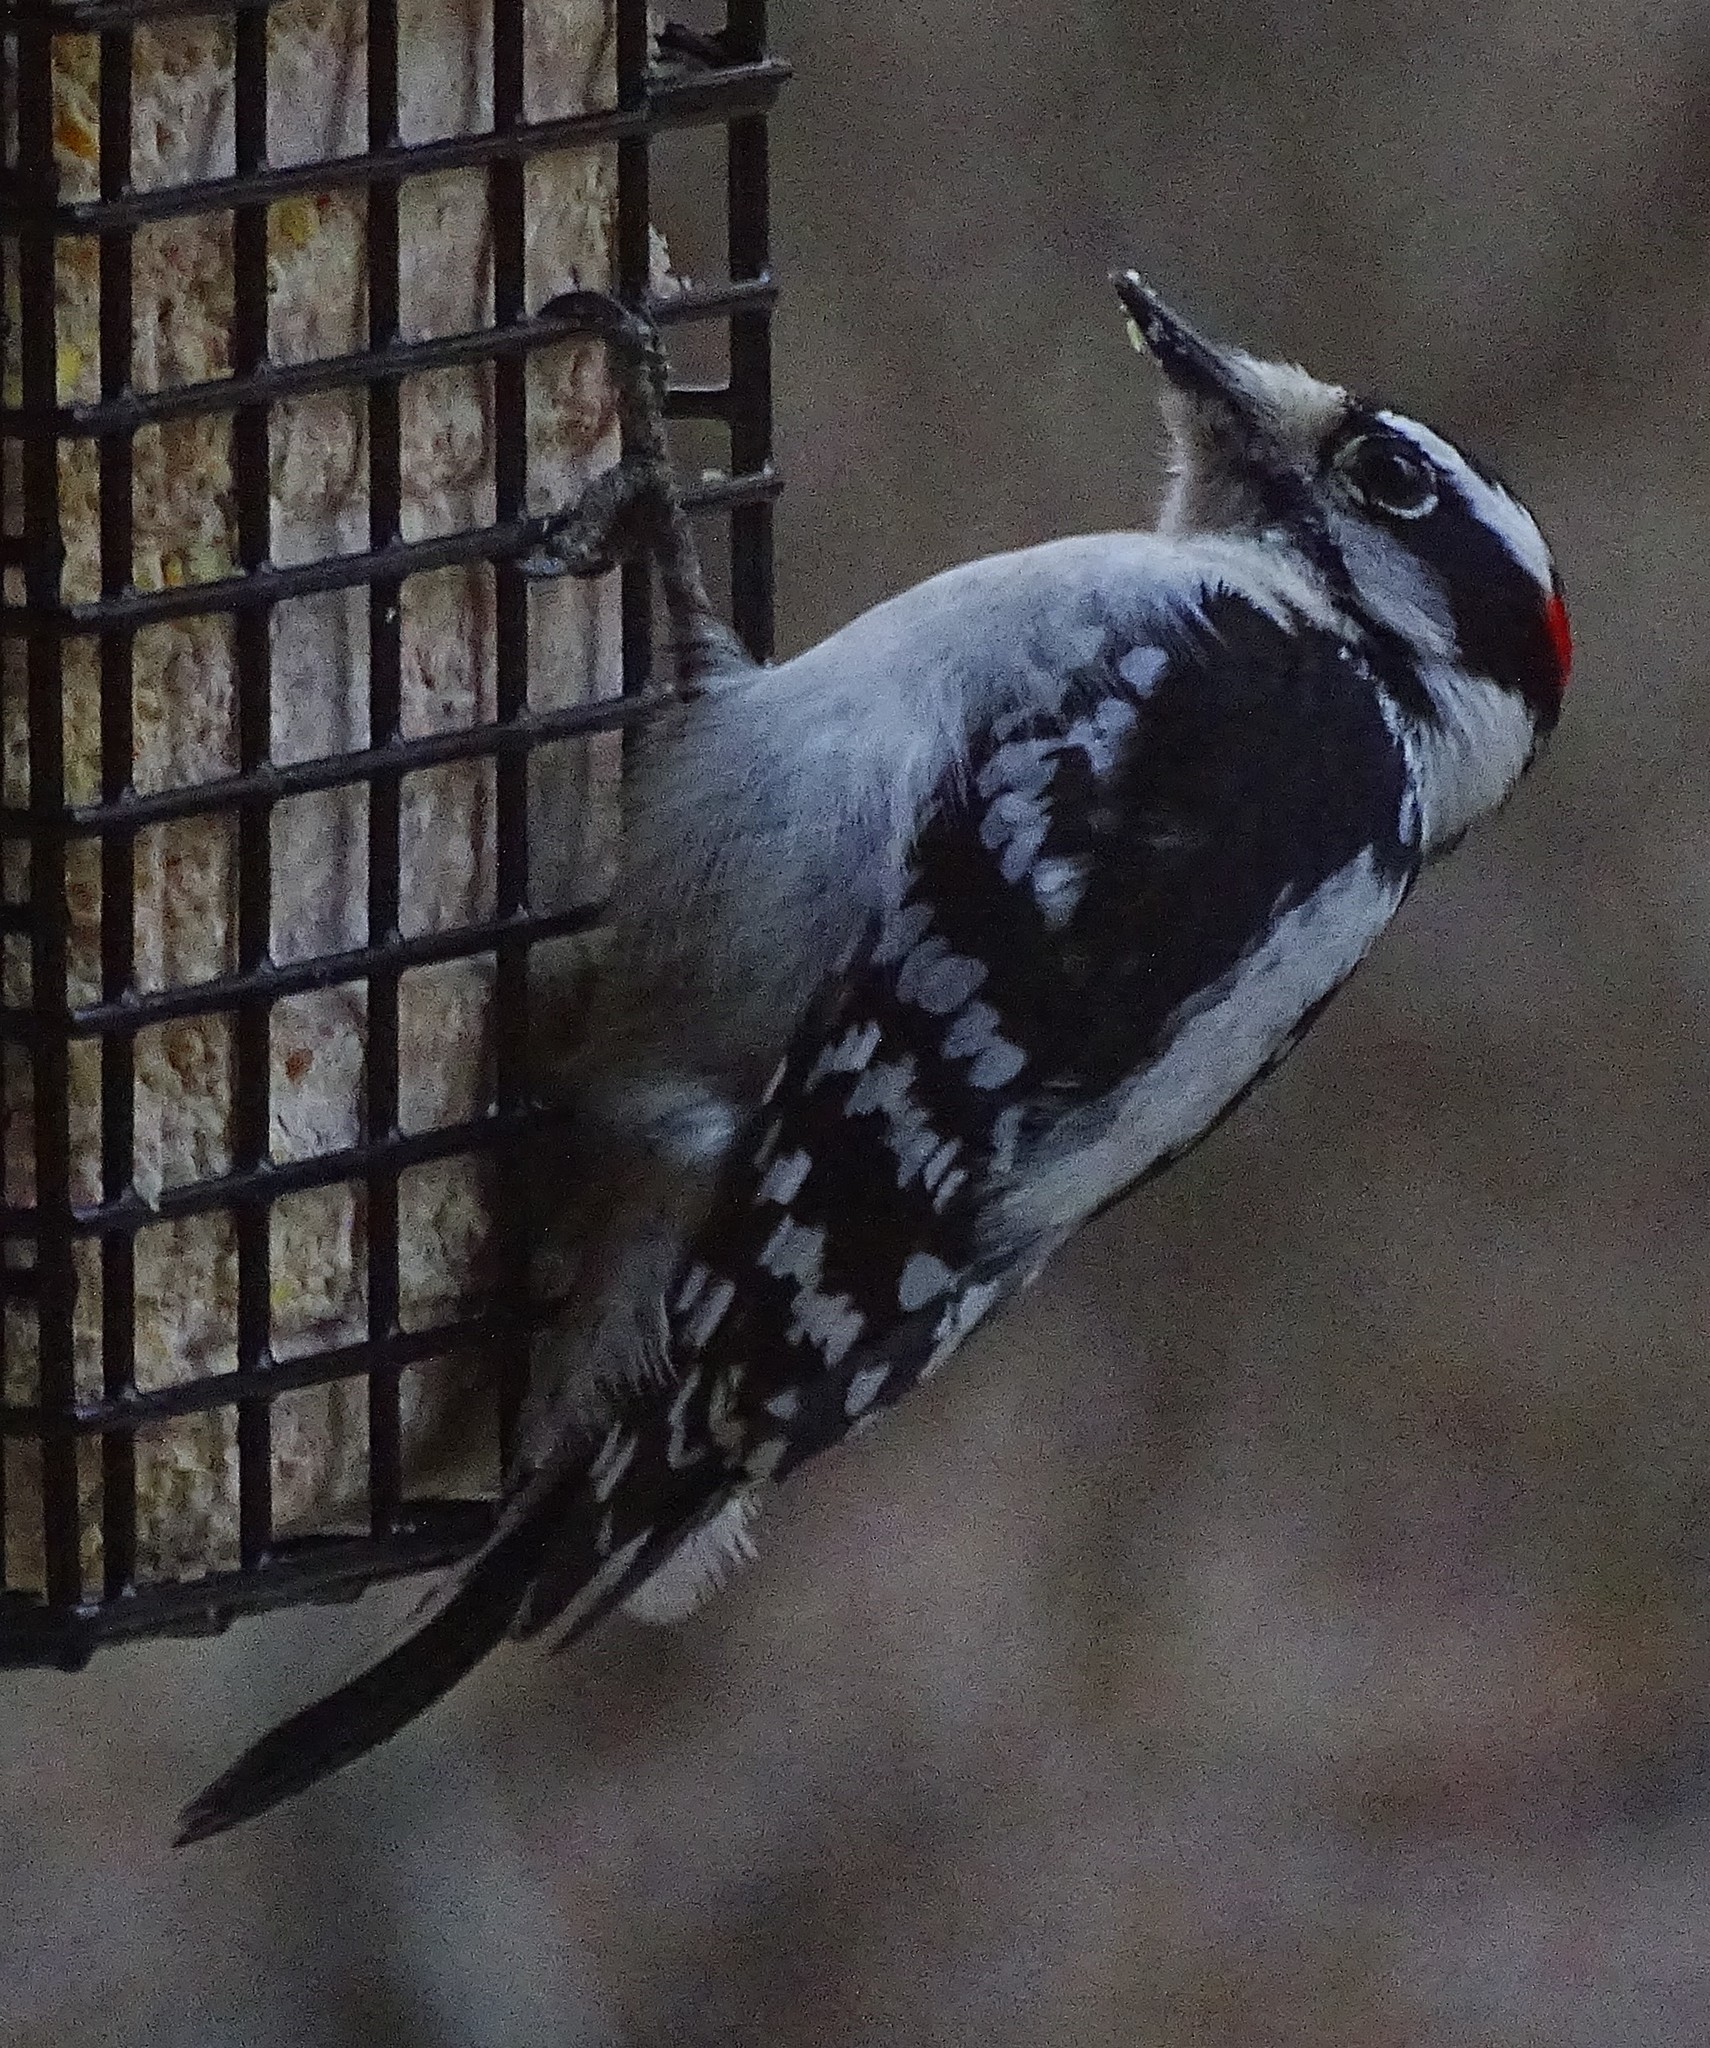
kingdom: Animalia
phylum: Chordata
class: Aves
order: Piciformes
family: Picidae
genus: Dryobates
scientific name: Dryobates pubescens
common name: Downy woodpecker
